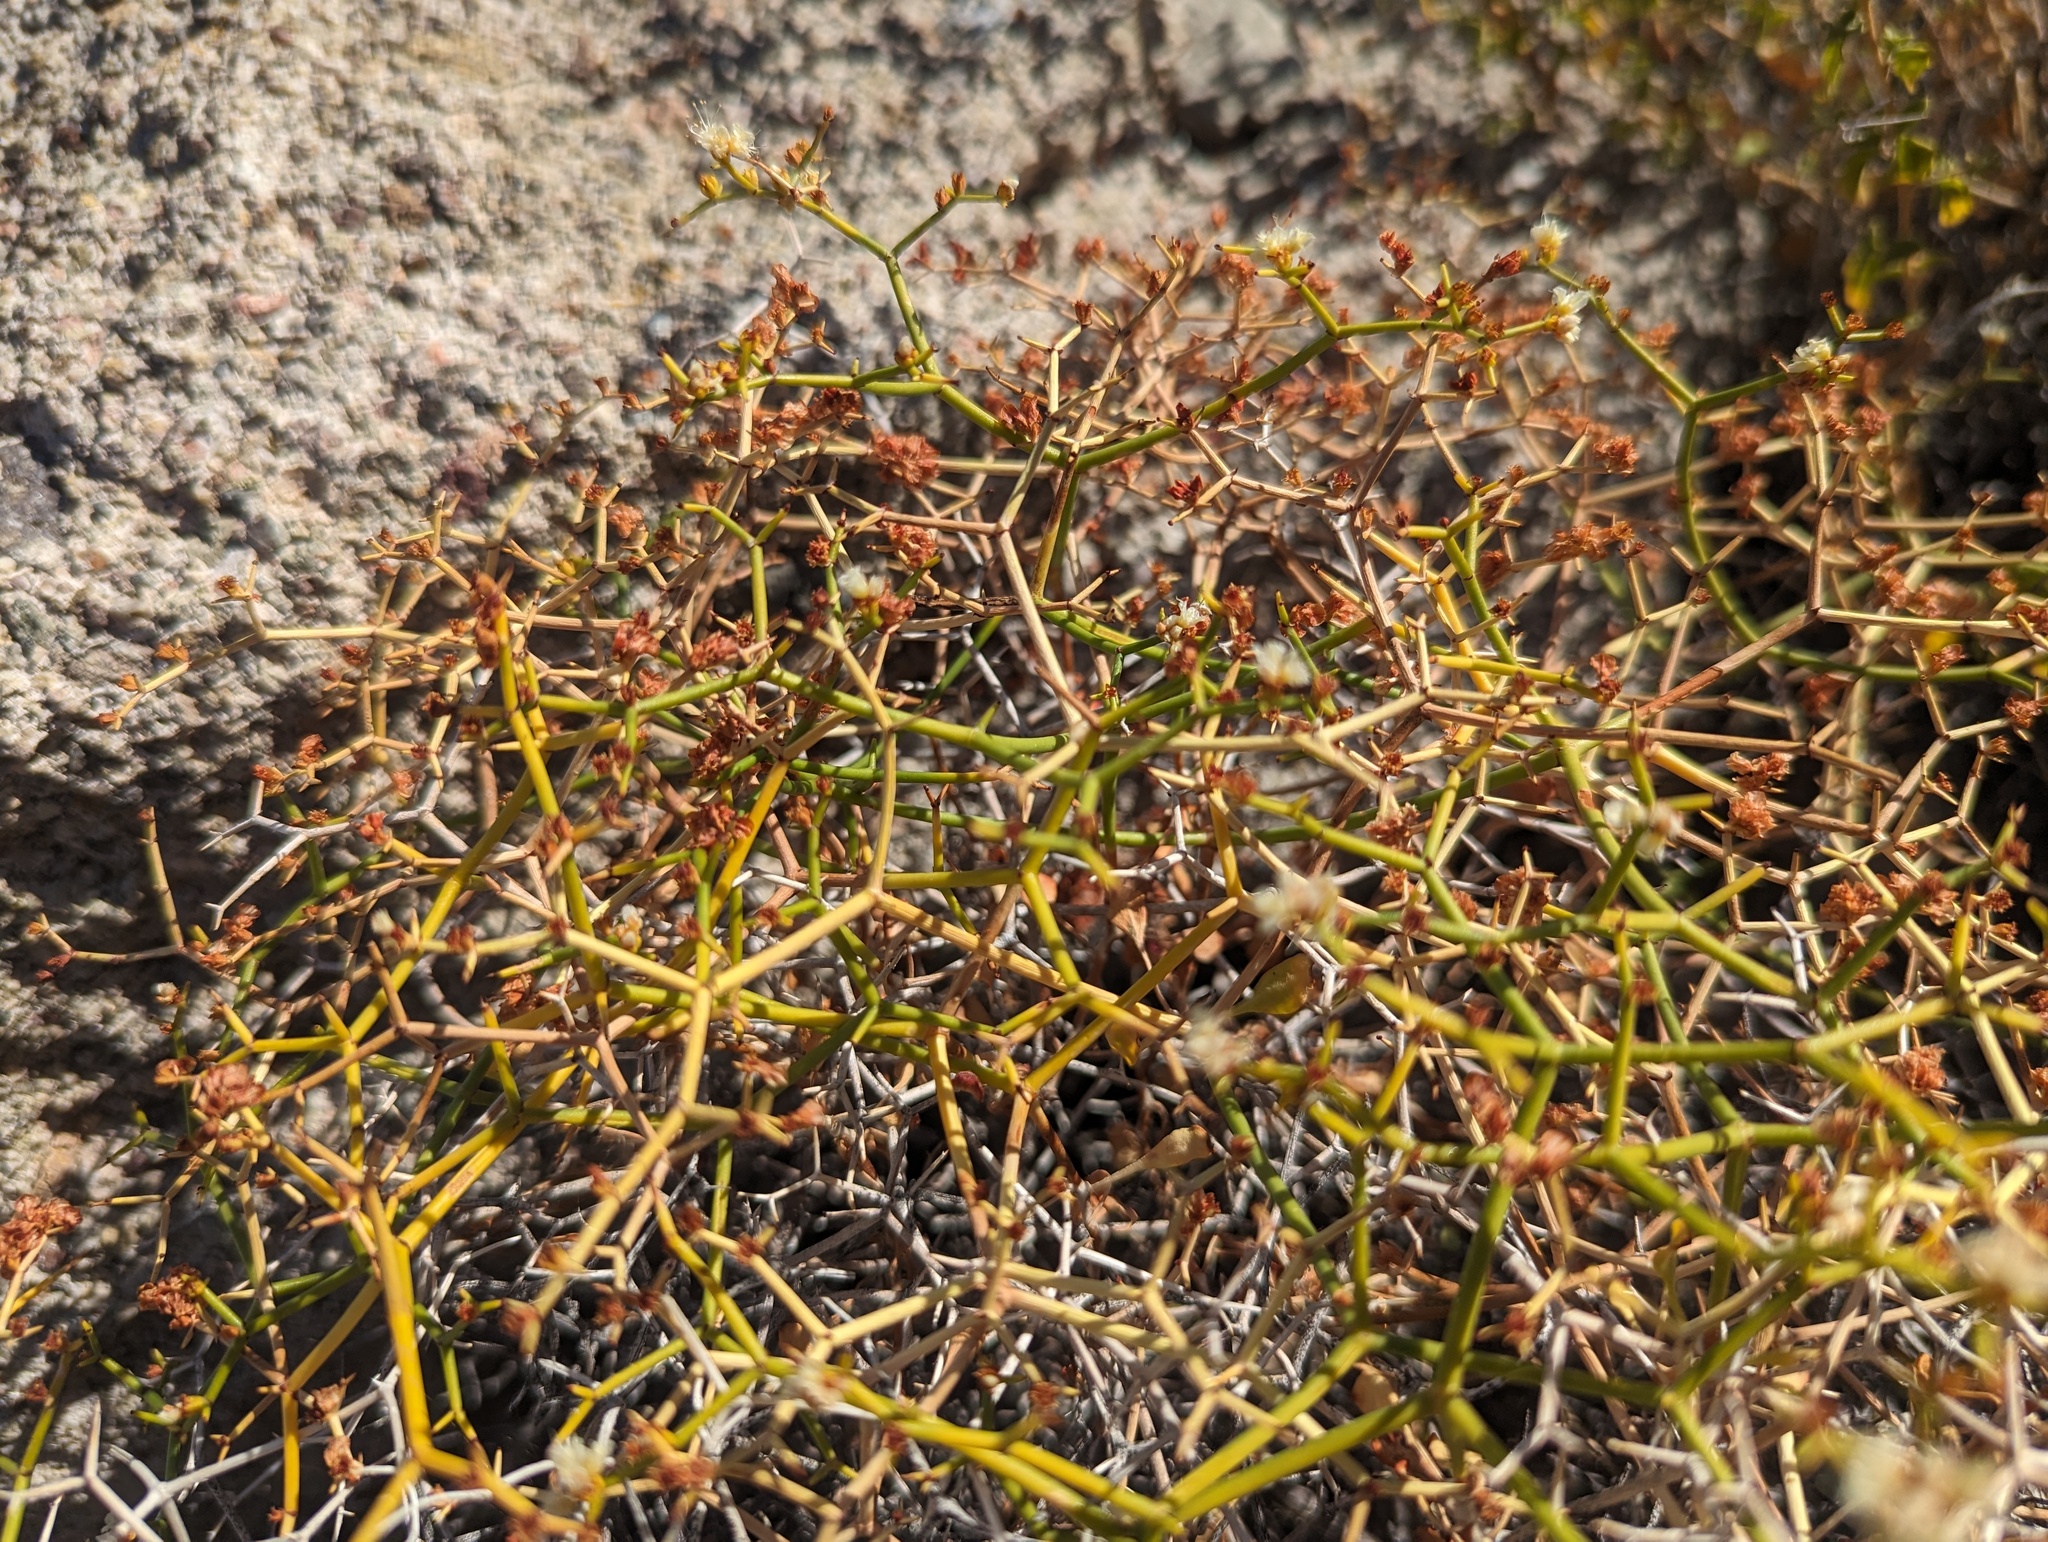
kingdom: Plantae
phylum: Tracheophyta
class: Magnoliopsida
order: Caryophyllales
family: Polygonaceae
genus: Eriogonum
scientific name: Eriogonum heermannii
